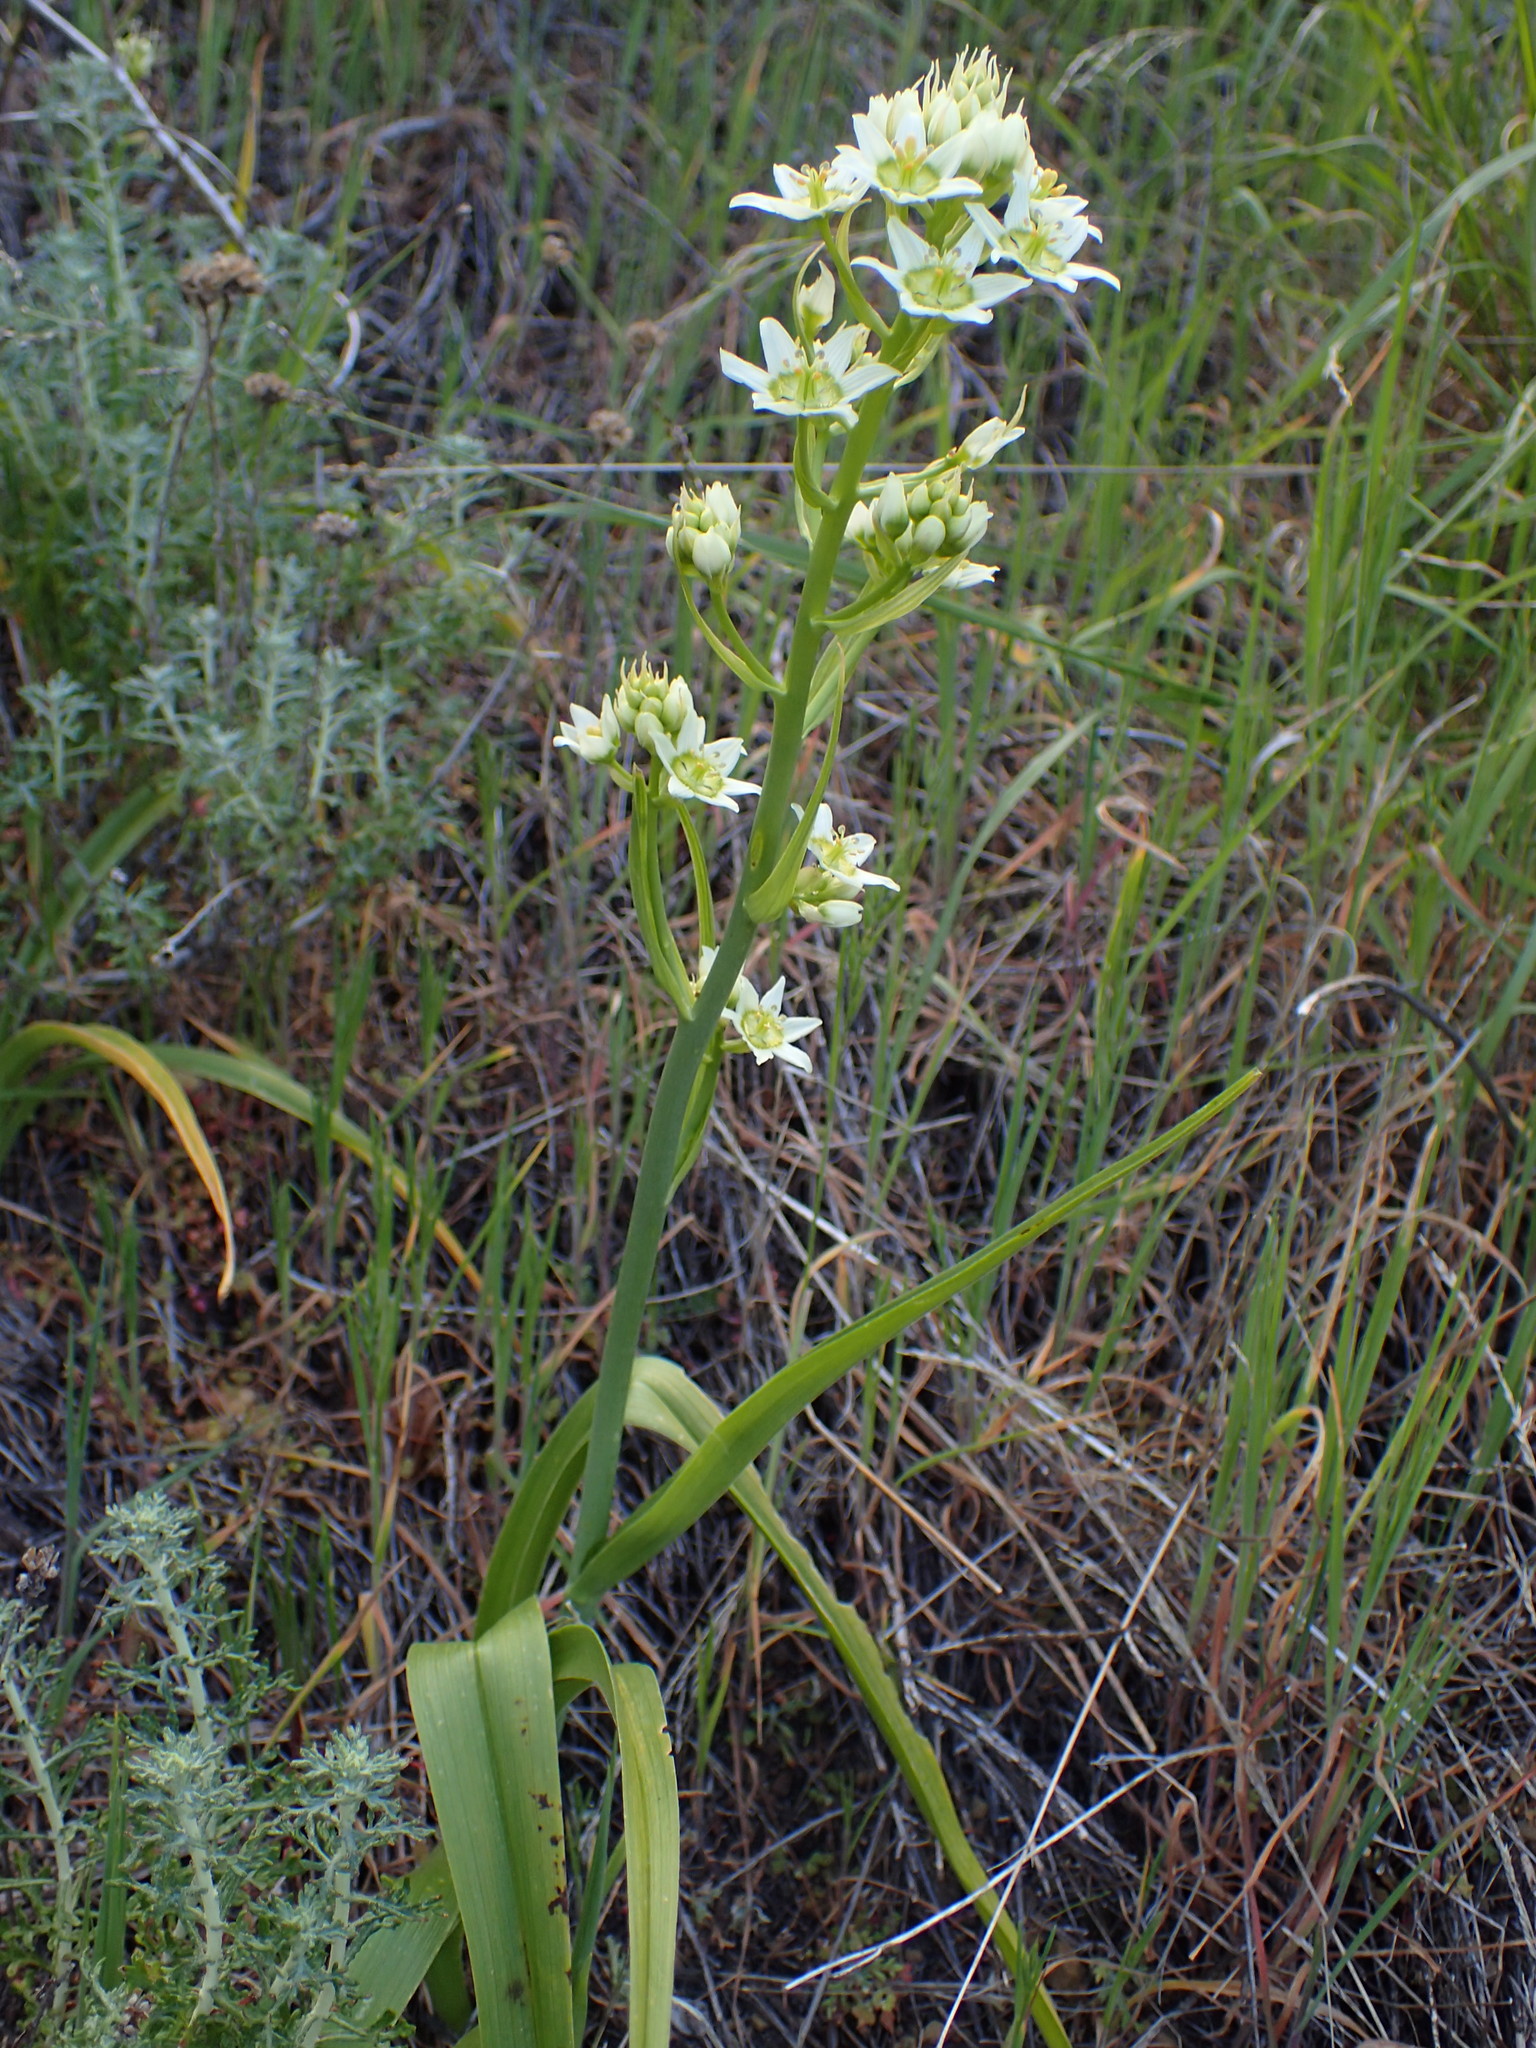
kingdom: Plantae
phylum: Tracheophyta
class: Liliopsida
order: Liliales
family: Melanthiaceae
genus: Toxicoscordion
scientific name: Toxicoscordion fremontii
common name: Fremont's death camas
